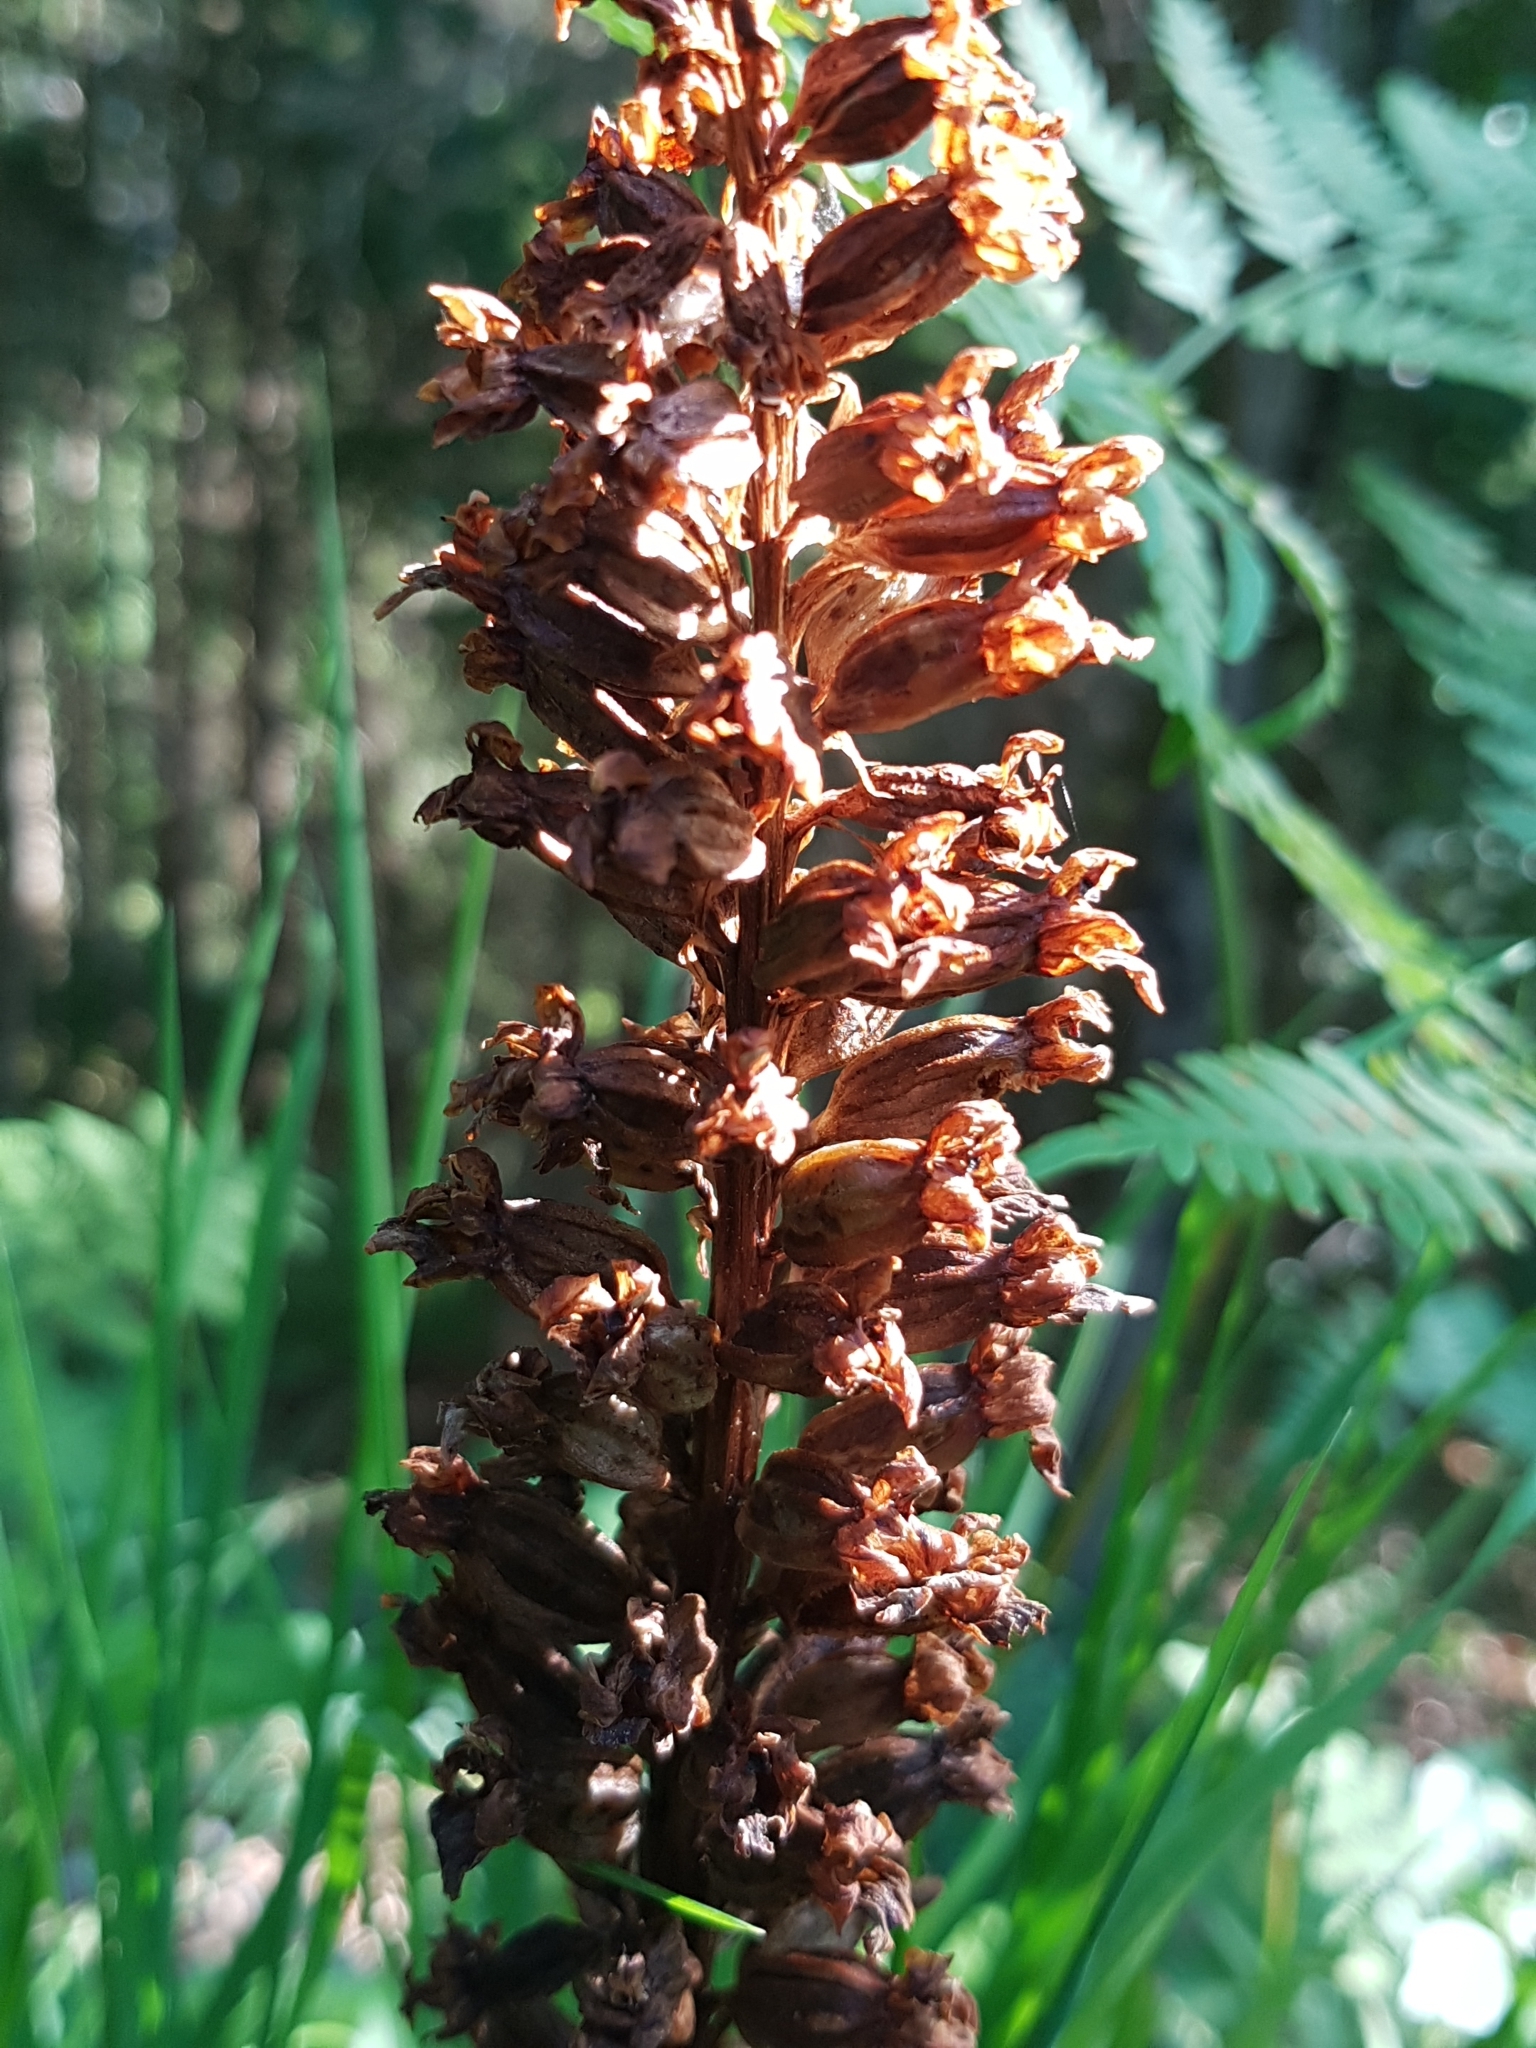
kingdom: Plantae
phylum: Tracheophyta
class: Liliopsida
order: Asparagales
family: Orchidaceae
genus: Neottia
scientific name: Neottia nidus-avis
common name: Bird's-nest orchid
